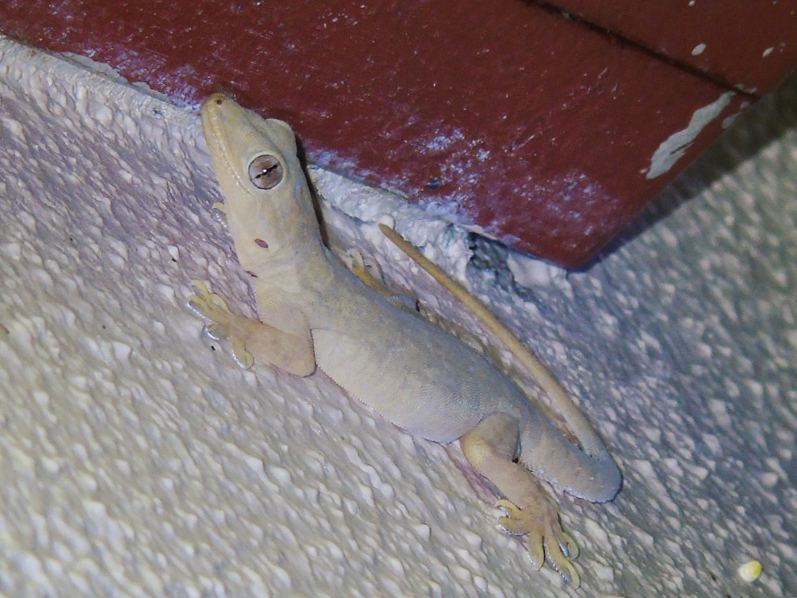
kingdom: Animalia
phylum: Chordata
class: Squamata
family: Gekkonidae
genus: Hemidactylus
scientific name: Hemidactylus flaviviridis
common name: Northern house gecko
